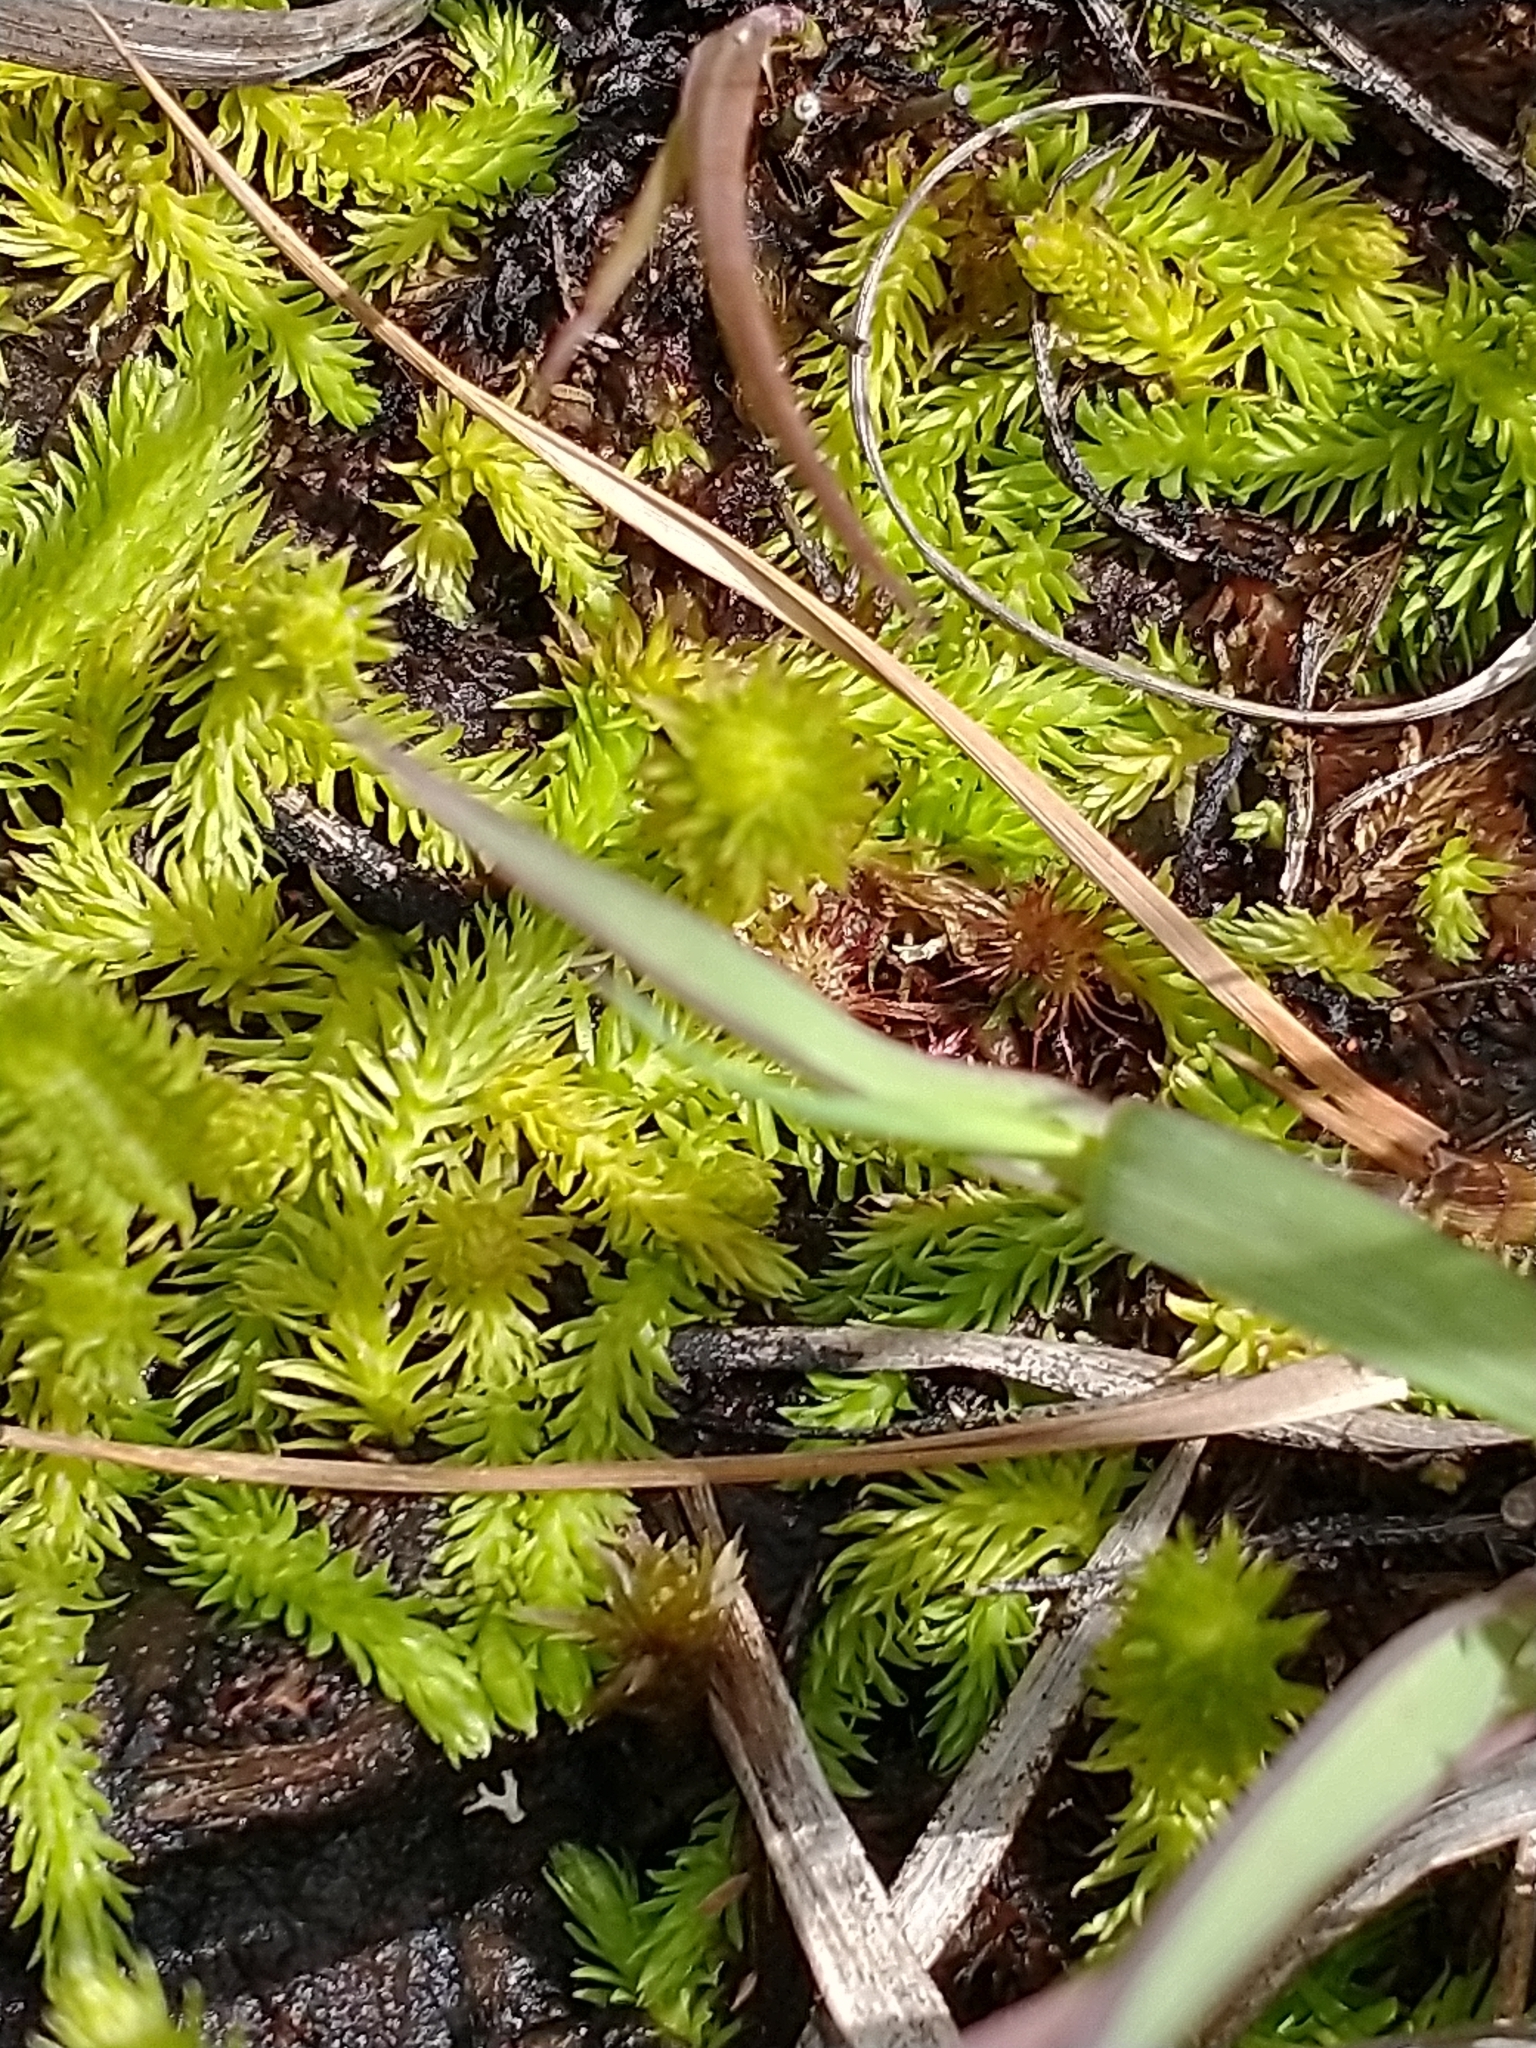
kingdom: Plantae
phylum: Tracheophyta
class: Lycopodiopsida
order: Lycopodiales
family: Lycopodiaceae
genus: Lycopodiella
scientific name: Lycopodiella inundata
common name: Marsh clubmoss
